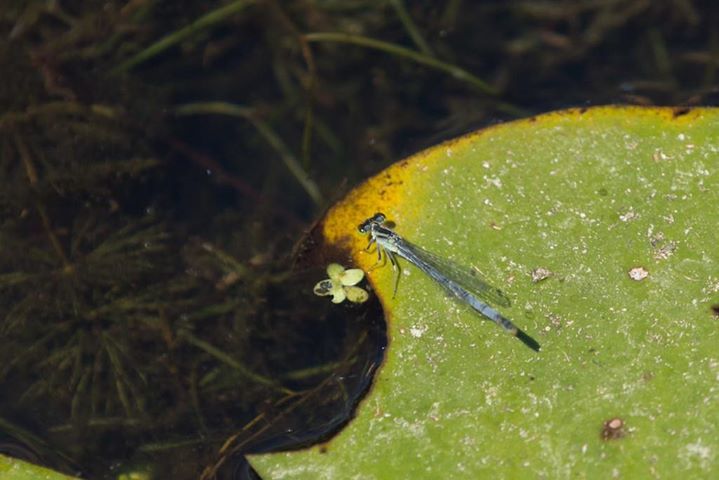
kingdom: Animalia
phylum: Arthropoda
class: Insecta
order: Odonata
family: Coenagrionidae
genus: Ischnura
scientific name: Ischnura verticalis
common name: Eastern forktail
